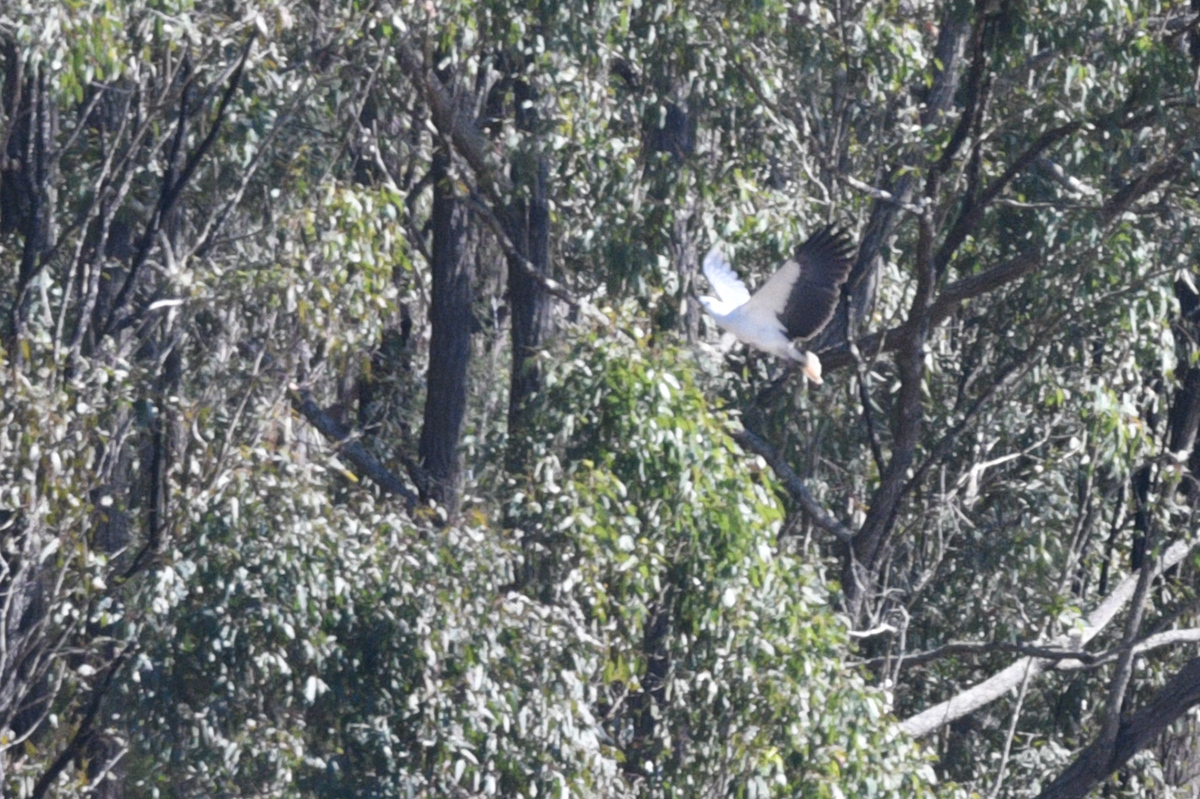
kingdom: Animalia
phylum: Chordata
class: Aves
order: Accipitriformes
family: Accipitridae
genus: Haliaeetus
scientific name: Haliaeetus leucogaster
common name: White-bellied sea eagle
